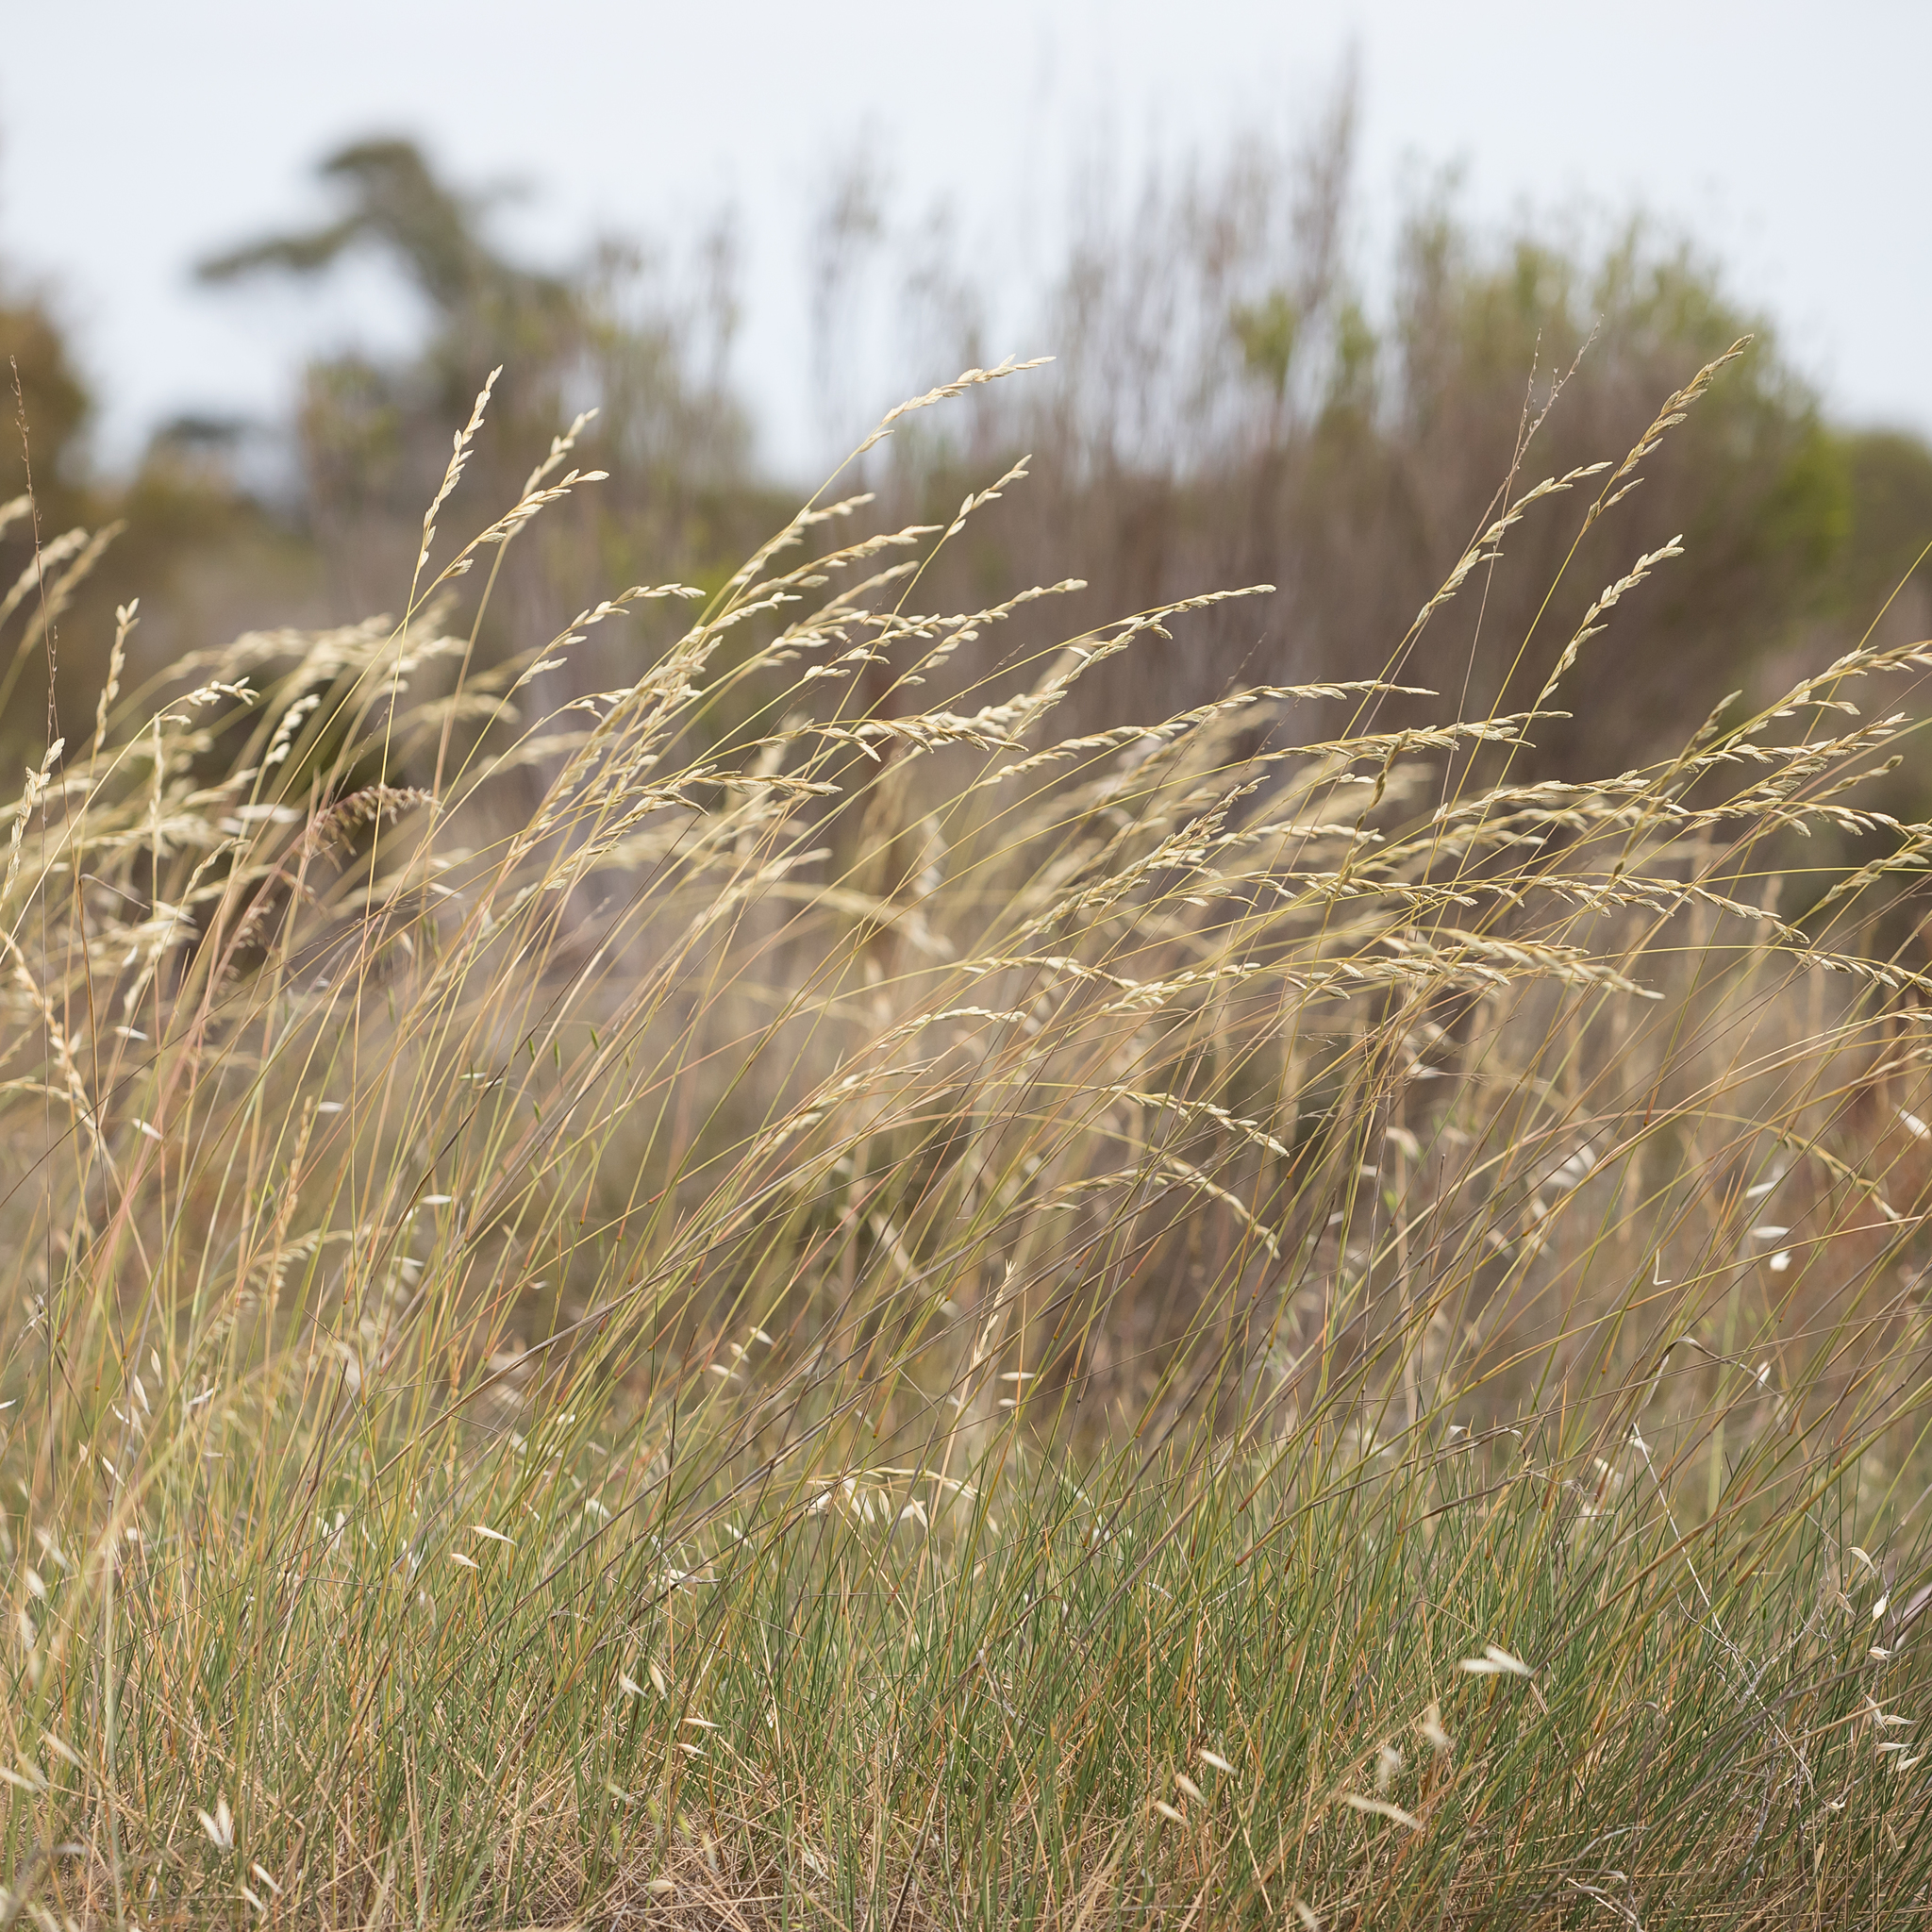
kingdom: Plantae
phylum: Tracheophyta
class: Liliopsida
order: Poales
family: Poaceae
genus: Triodia
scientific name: Triodia irritans
